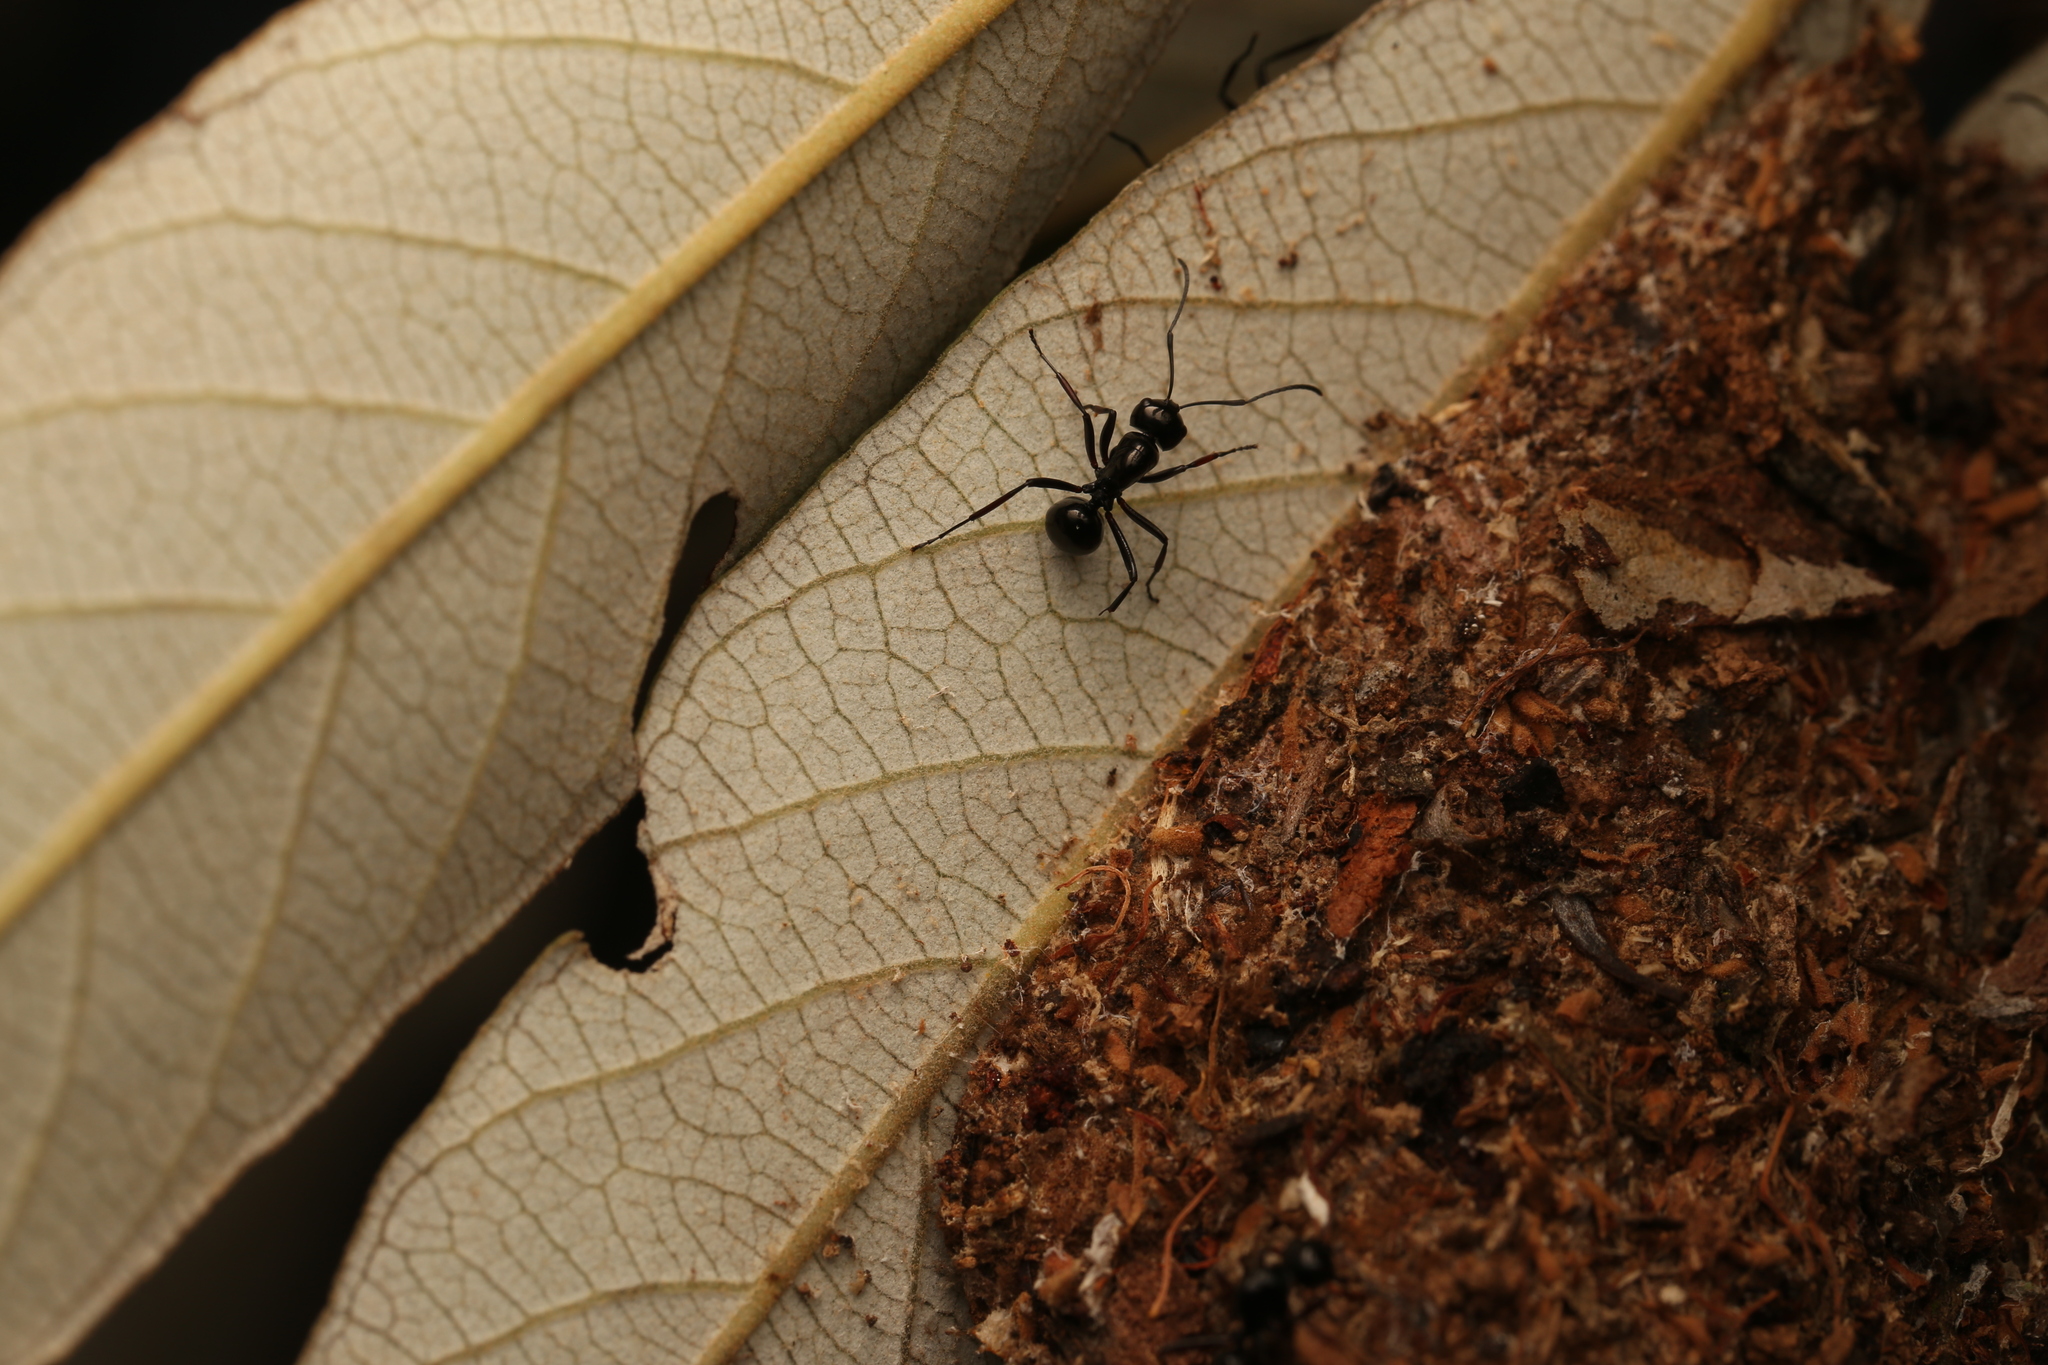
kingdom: Animalia
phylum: Arthropoda
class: Insecta
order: Hymenoptera
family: Formicidae
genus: Polyrhachis
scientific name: Polyrhachis australis
